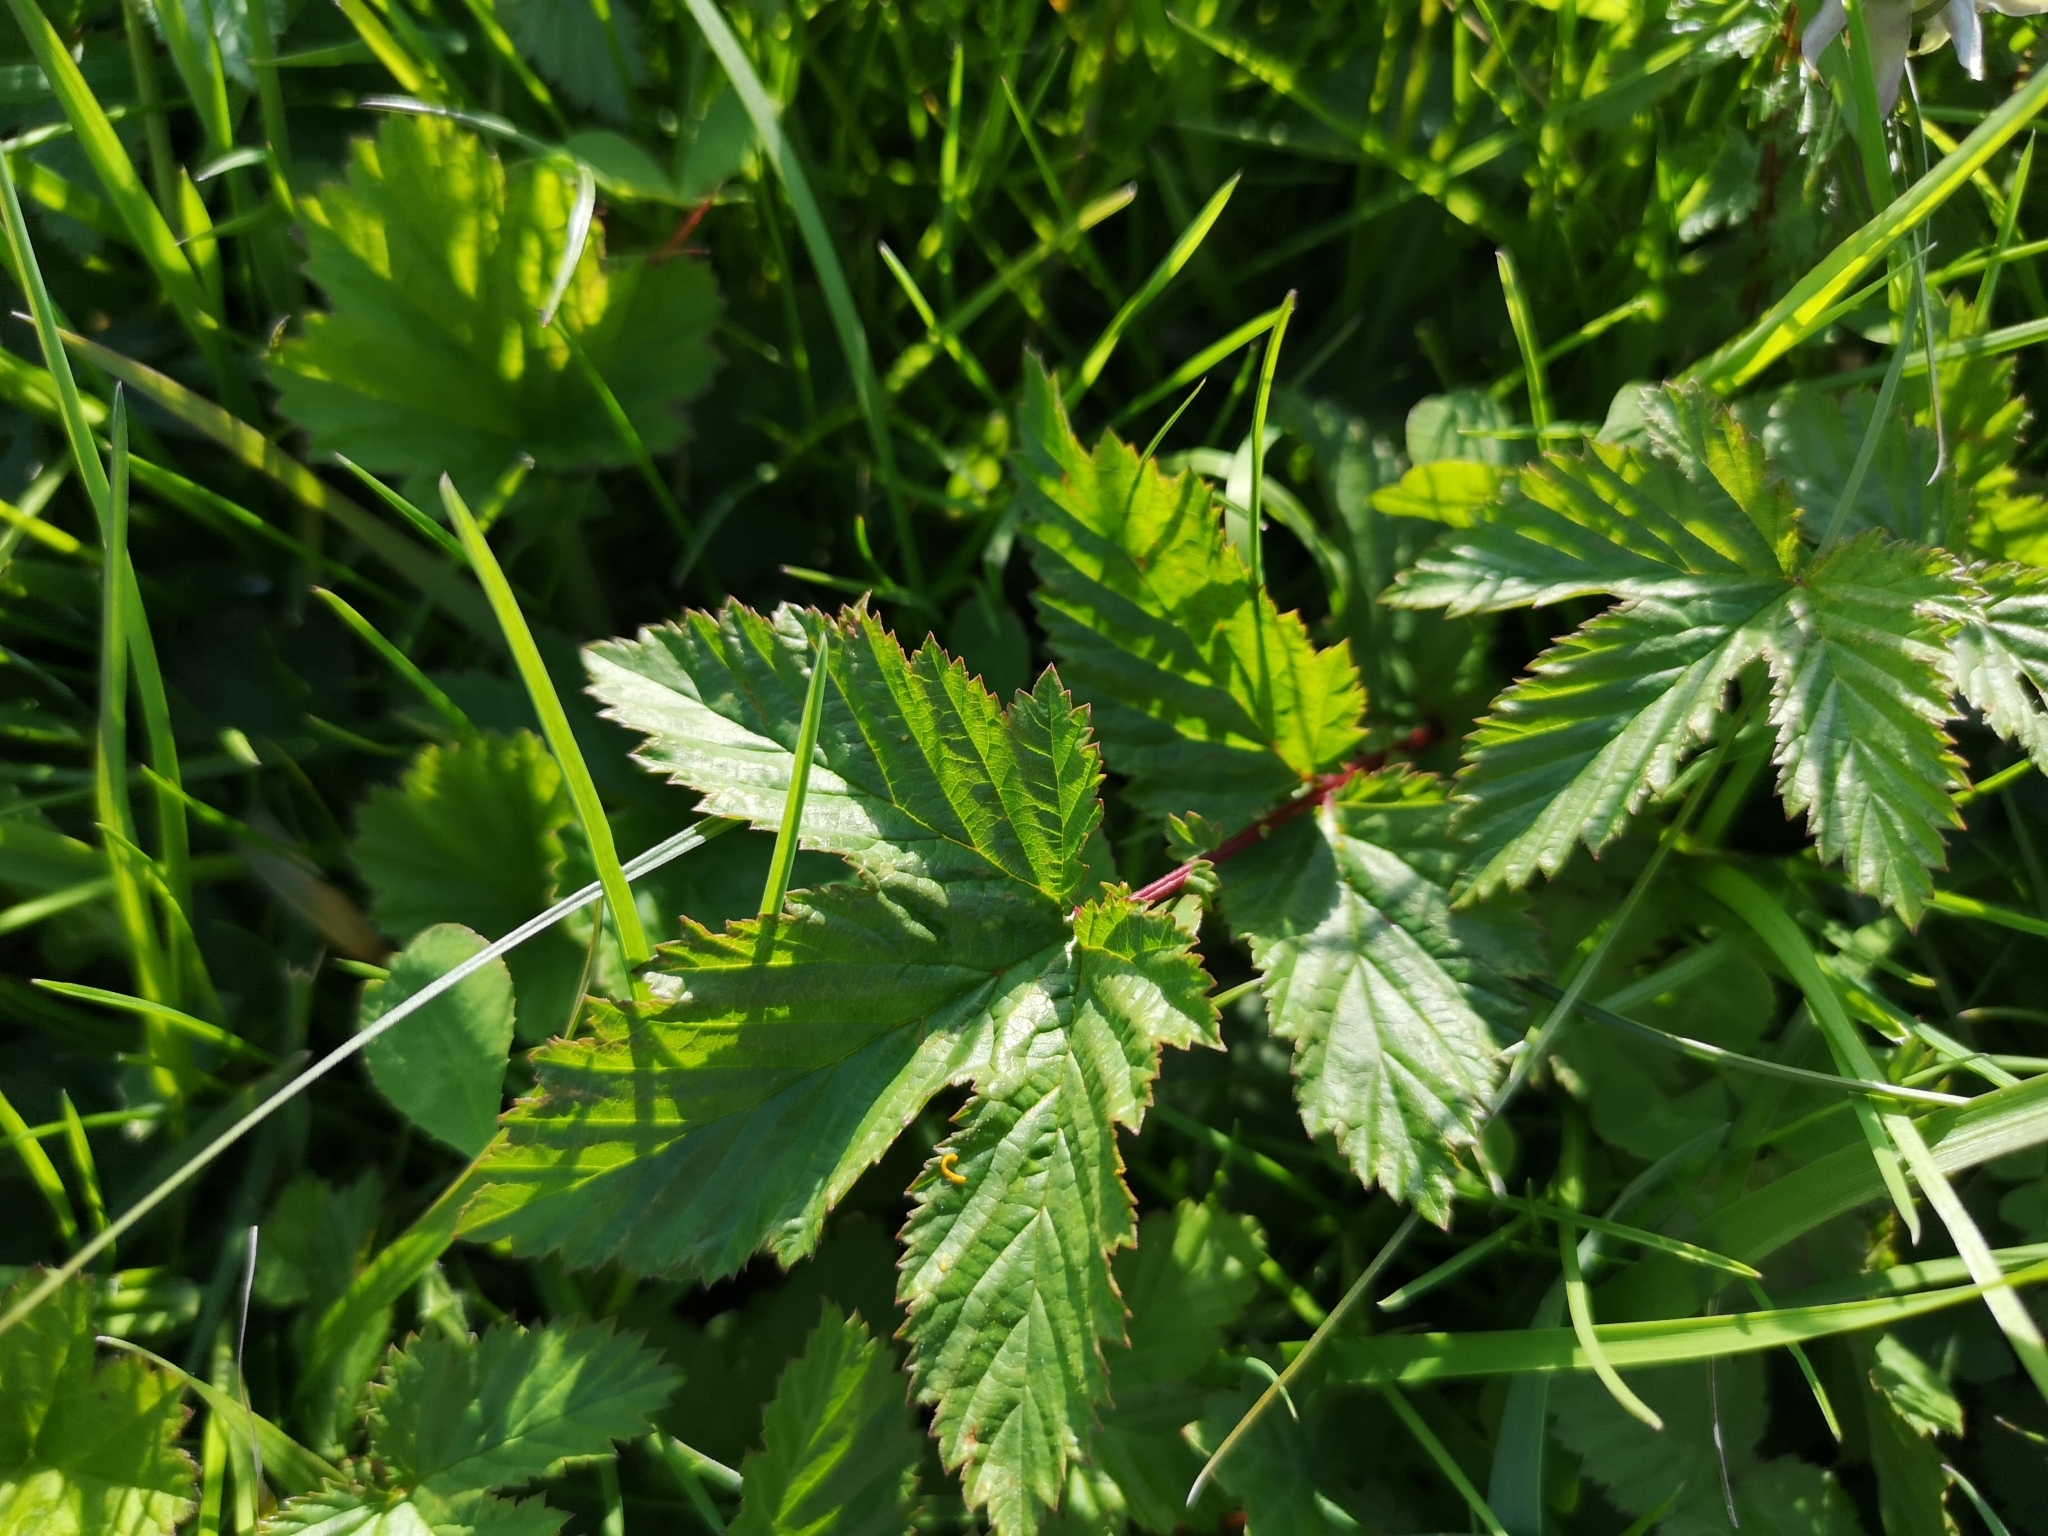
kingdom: Plantae
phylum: Tracheophyta
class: Magnoliopsida
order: Rosales
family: Rosaceae
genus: Filipendula
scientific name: Filipendula ulmaria
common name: Meadowsweet
